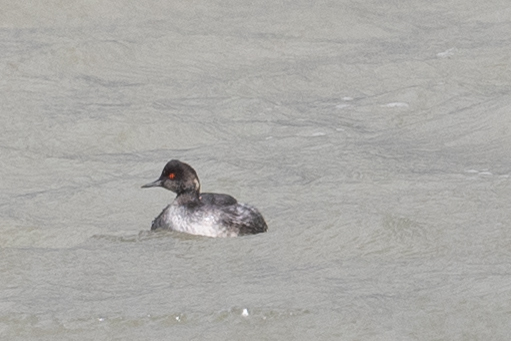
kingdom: Animalia
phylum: Chordata
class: Aves
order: Podicipediformes
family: Podicipedidae
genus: Podiceps
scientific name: Podiceps nigricollis
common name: Black-necked grebe
